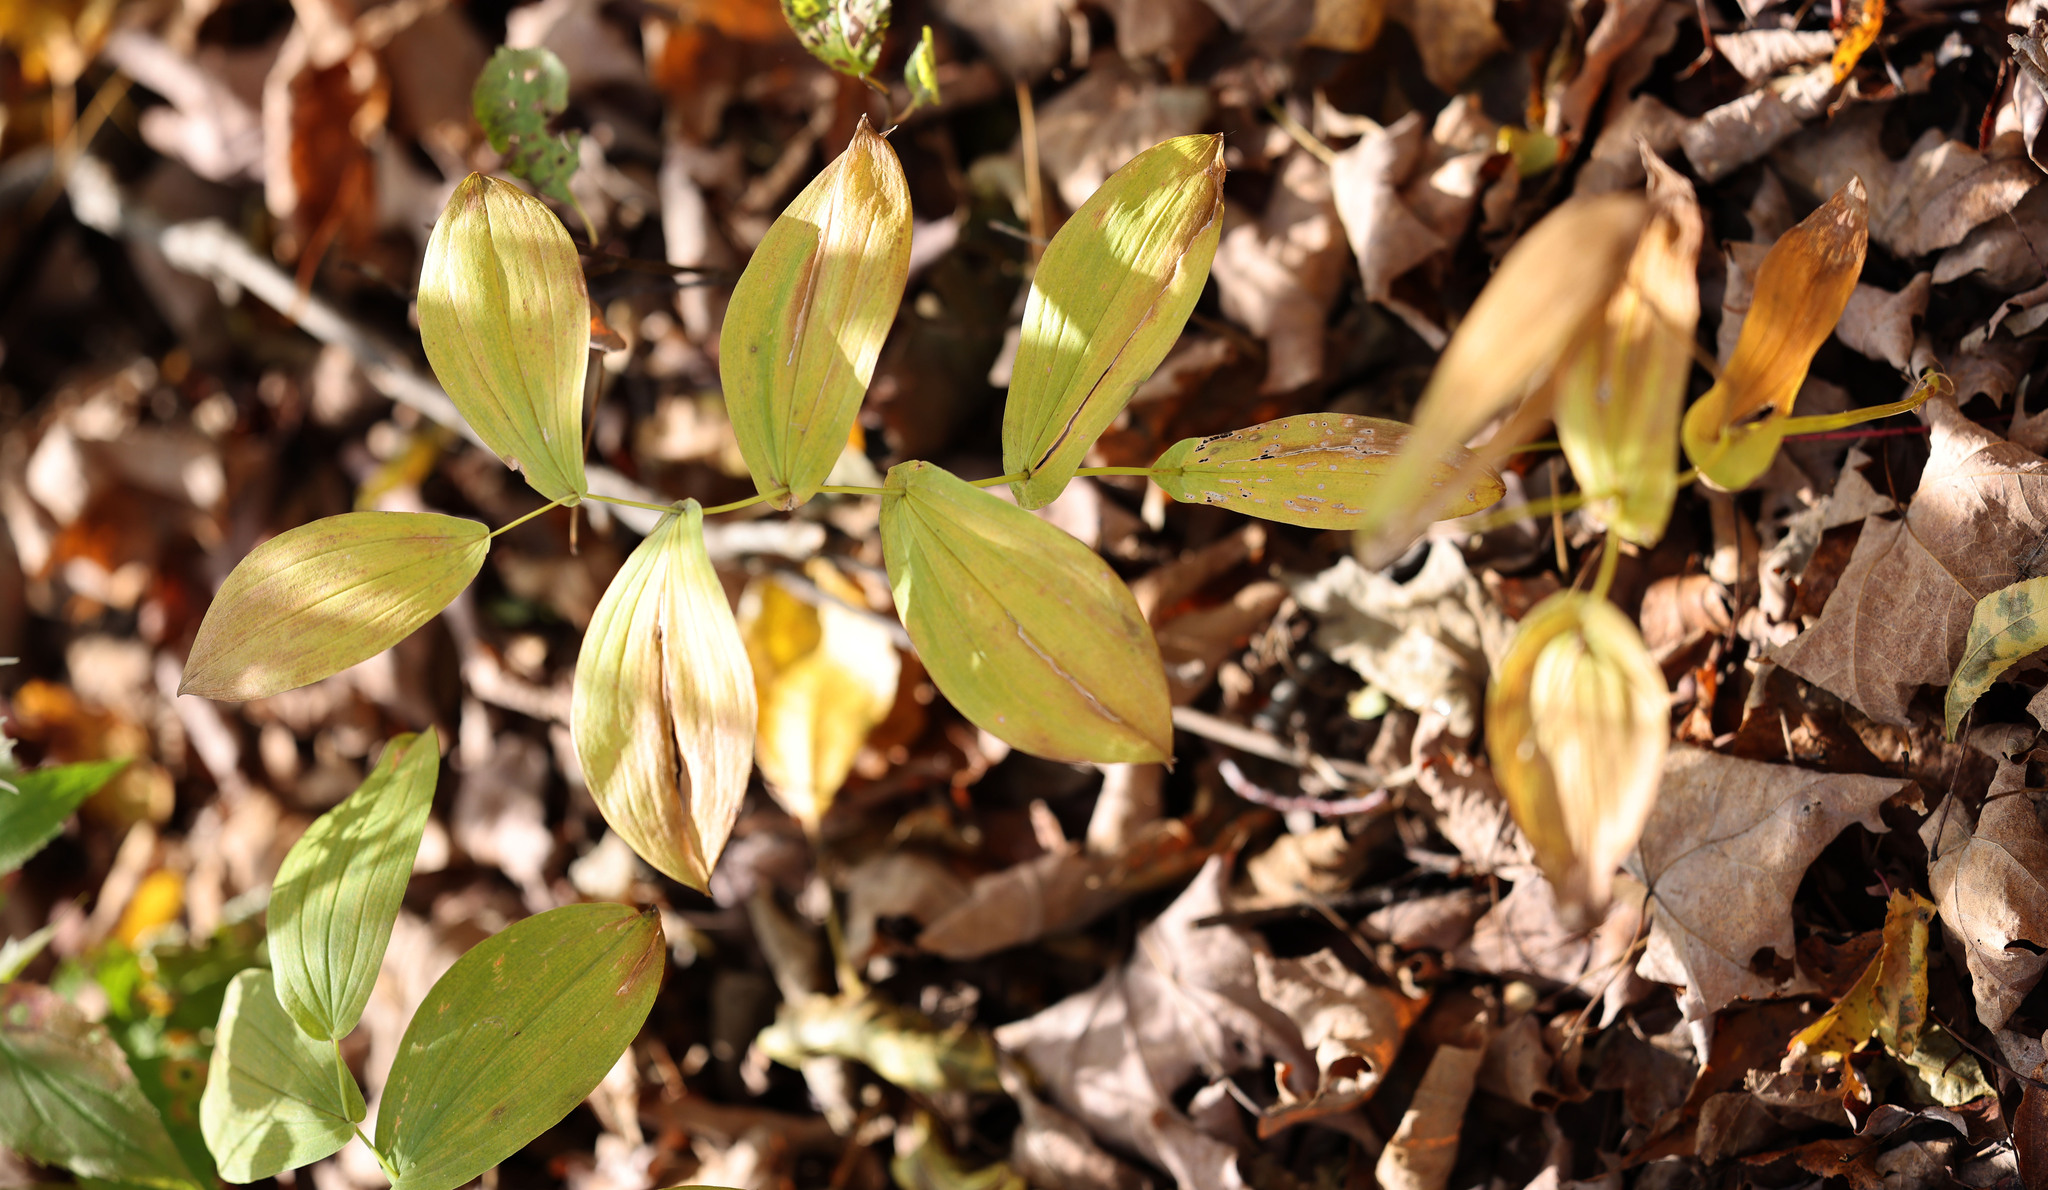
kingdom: Plantae
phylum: Tracheophyta
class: Liliopsida
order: Liliales
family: Colchicaceae
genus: Uvularia
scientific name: Uvularia grandiflora
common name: Bellwort
